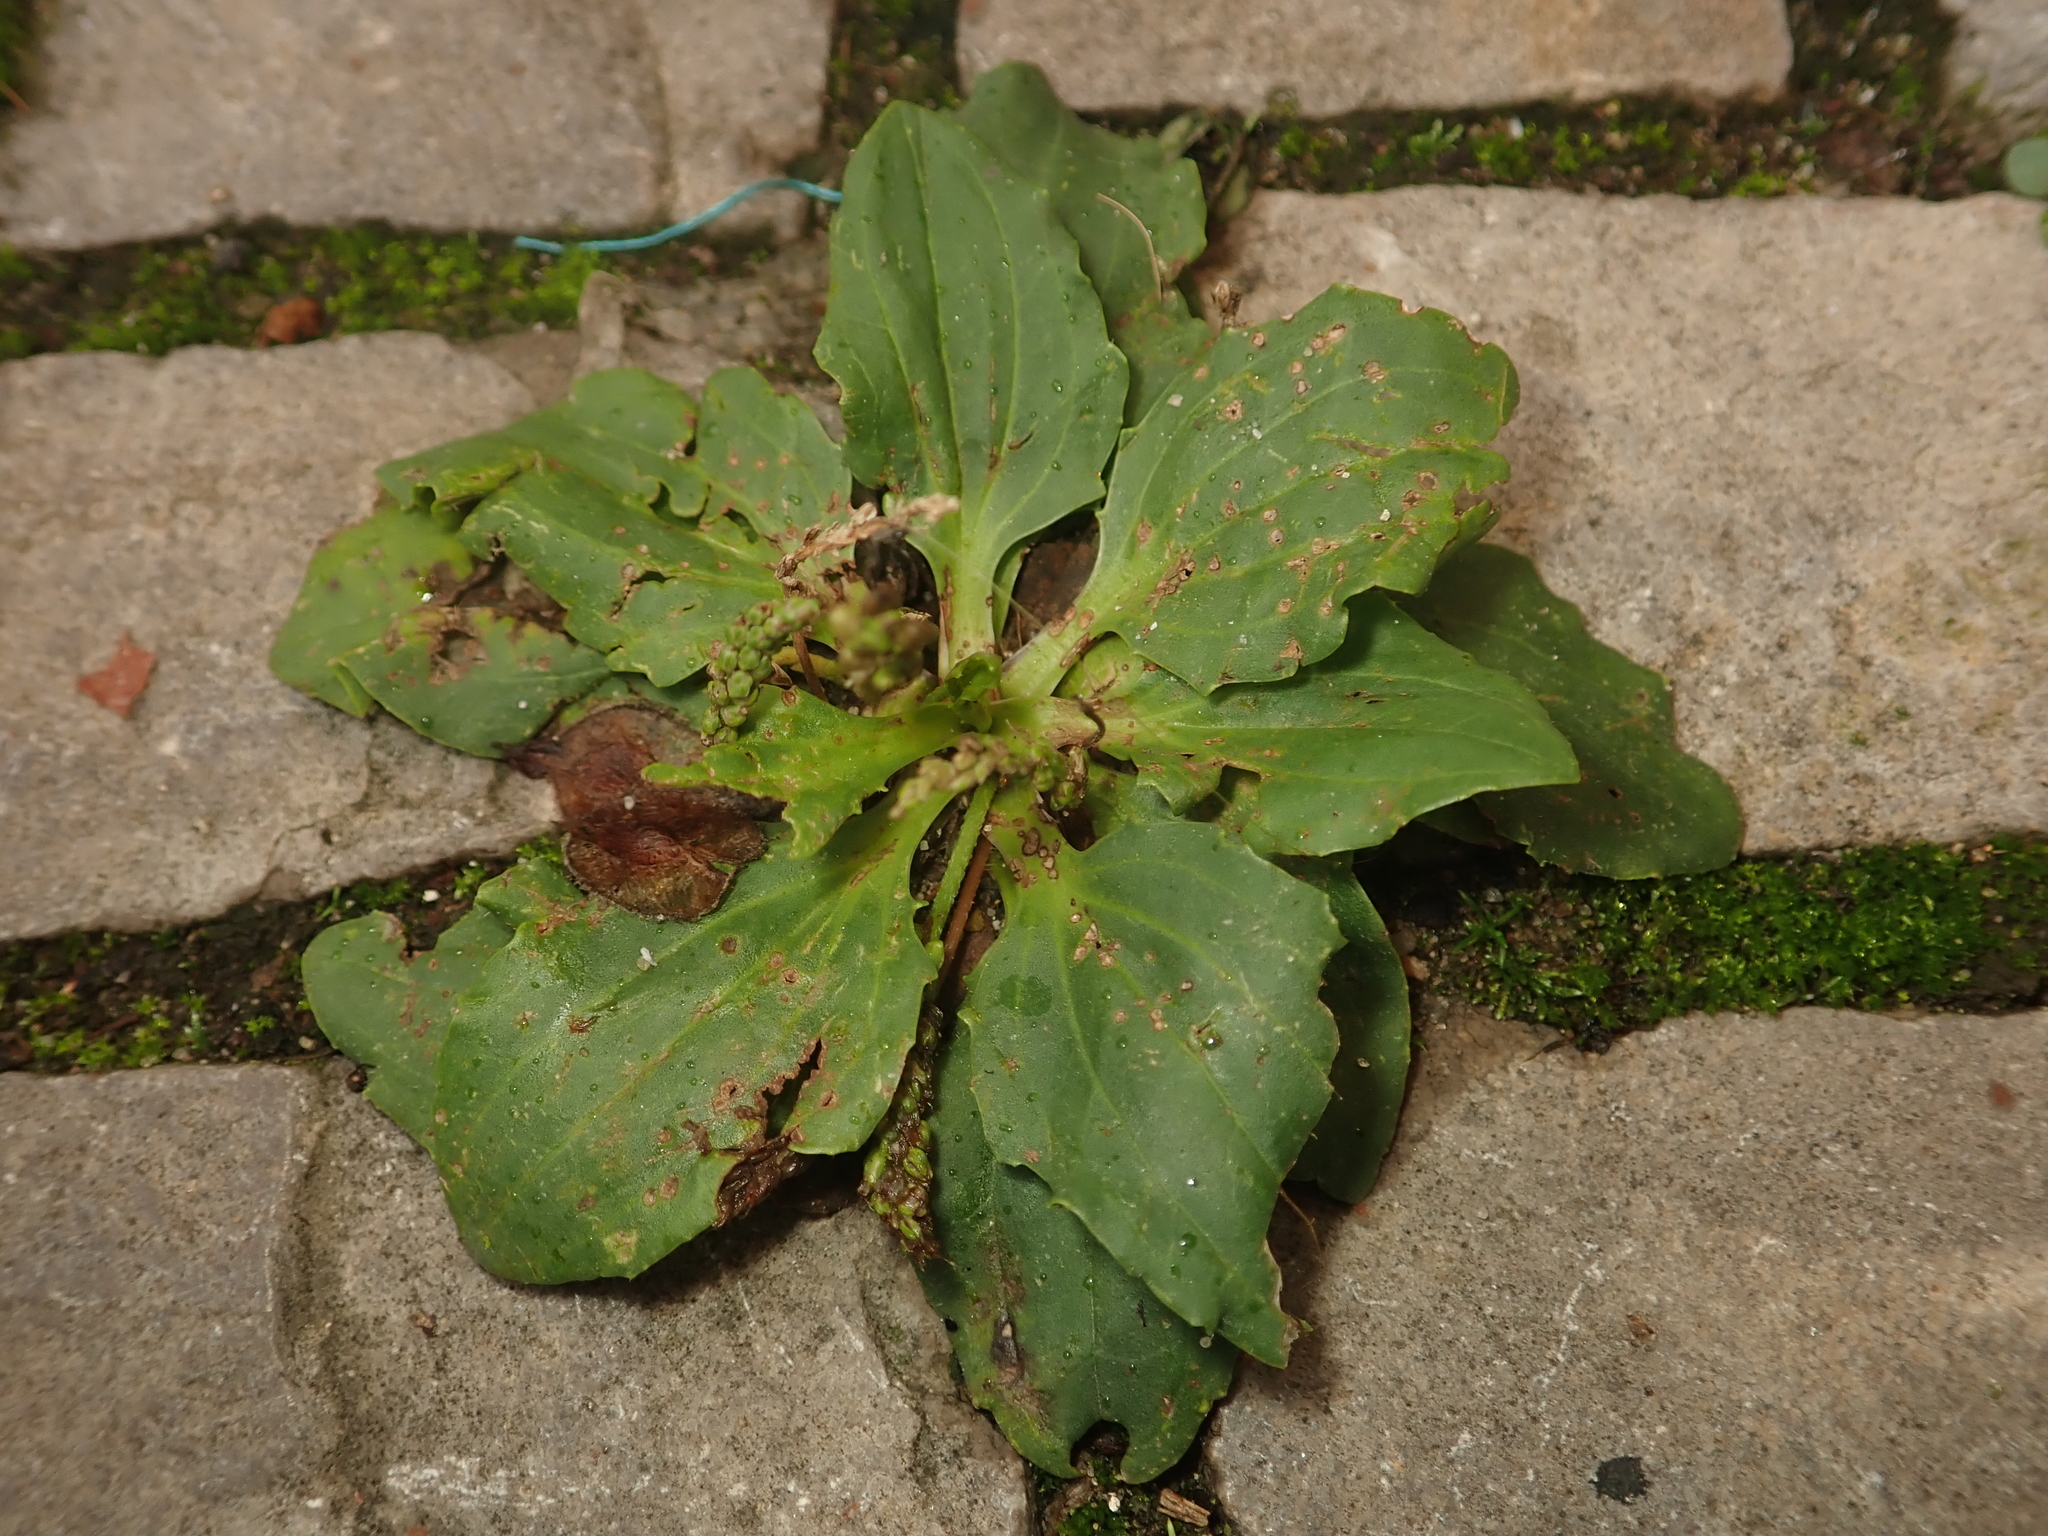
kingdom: Plantae
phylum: Tracheophyta
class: Magnoliopsida
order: Lamiales
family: Plantaginaceae
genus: Plantago
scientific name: Plantago major
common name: Common plantain
